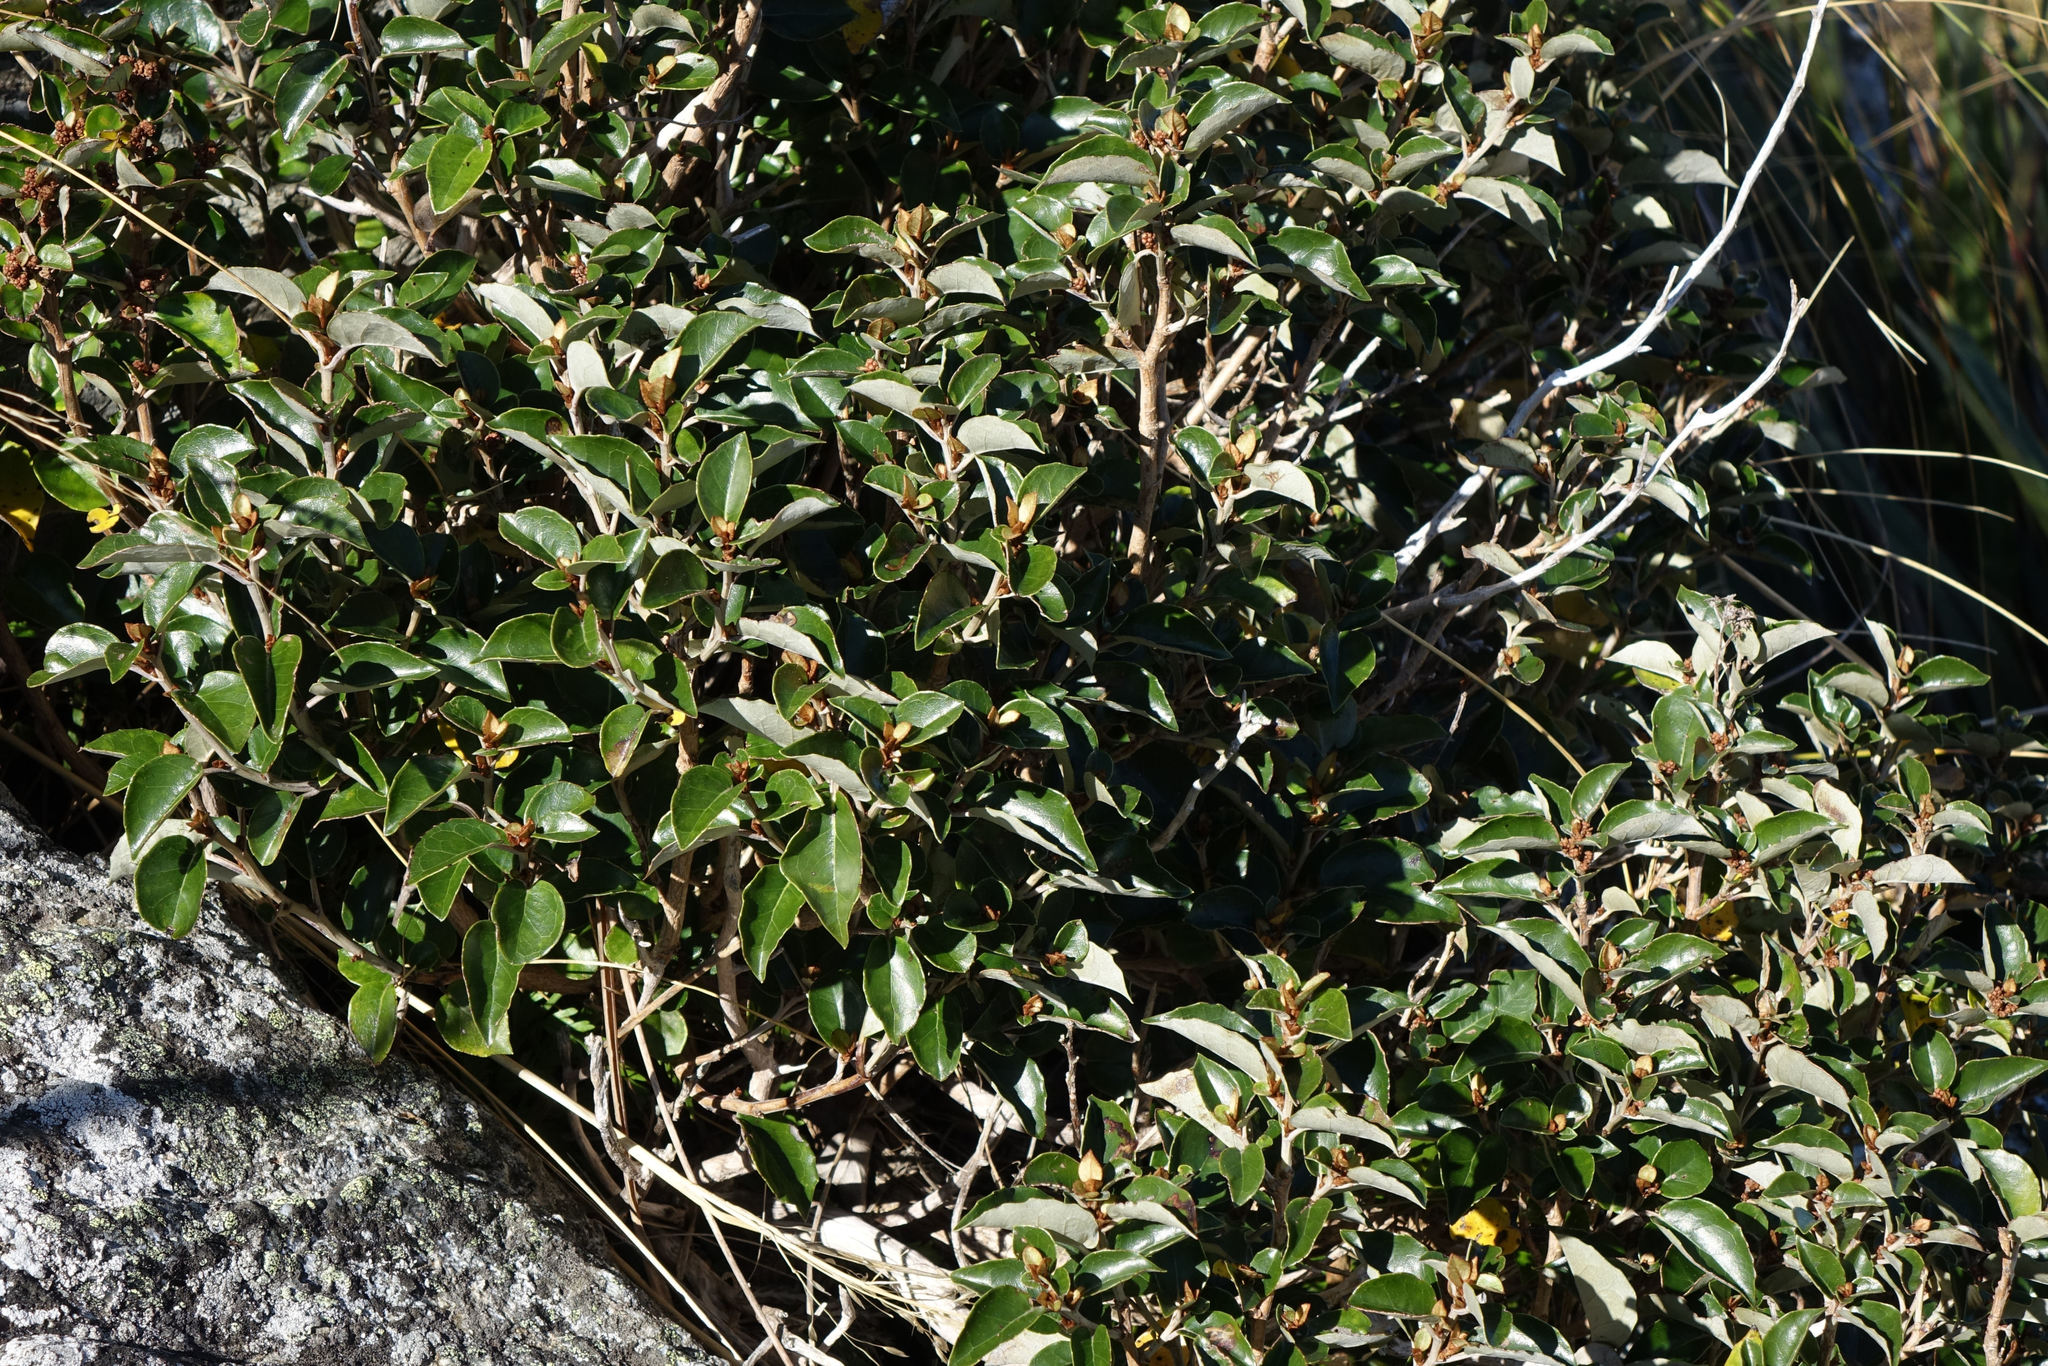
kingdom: Plantae
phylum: Tracheophyta
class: Magnoliopsida
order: Asterales
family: Asteraceae
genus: Olearia
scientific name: Olearia arborescens
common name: Glossy tree daisy
